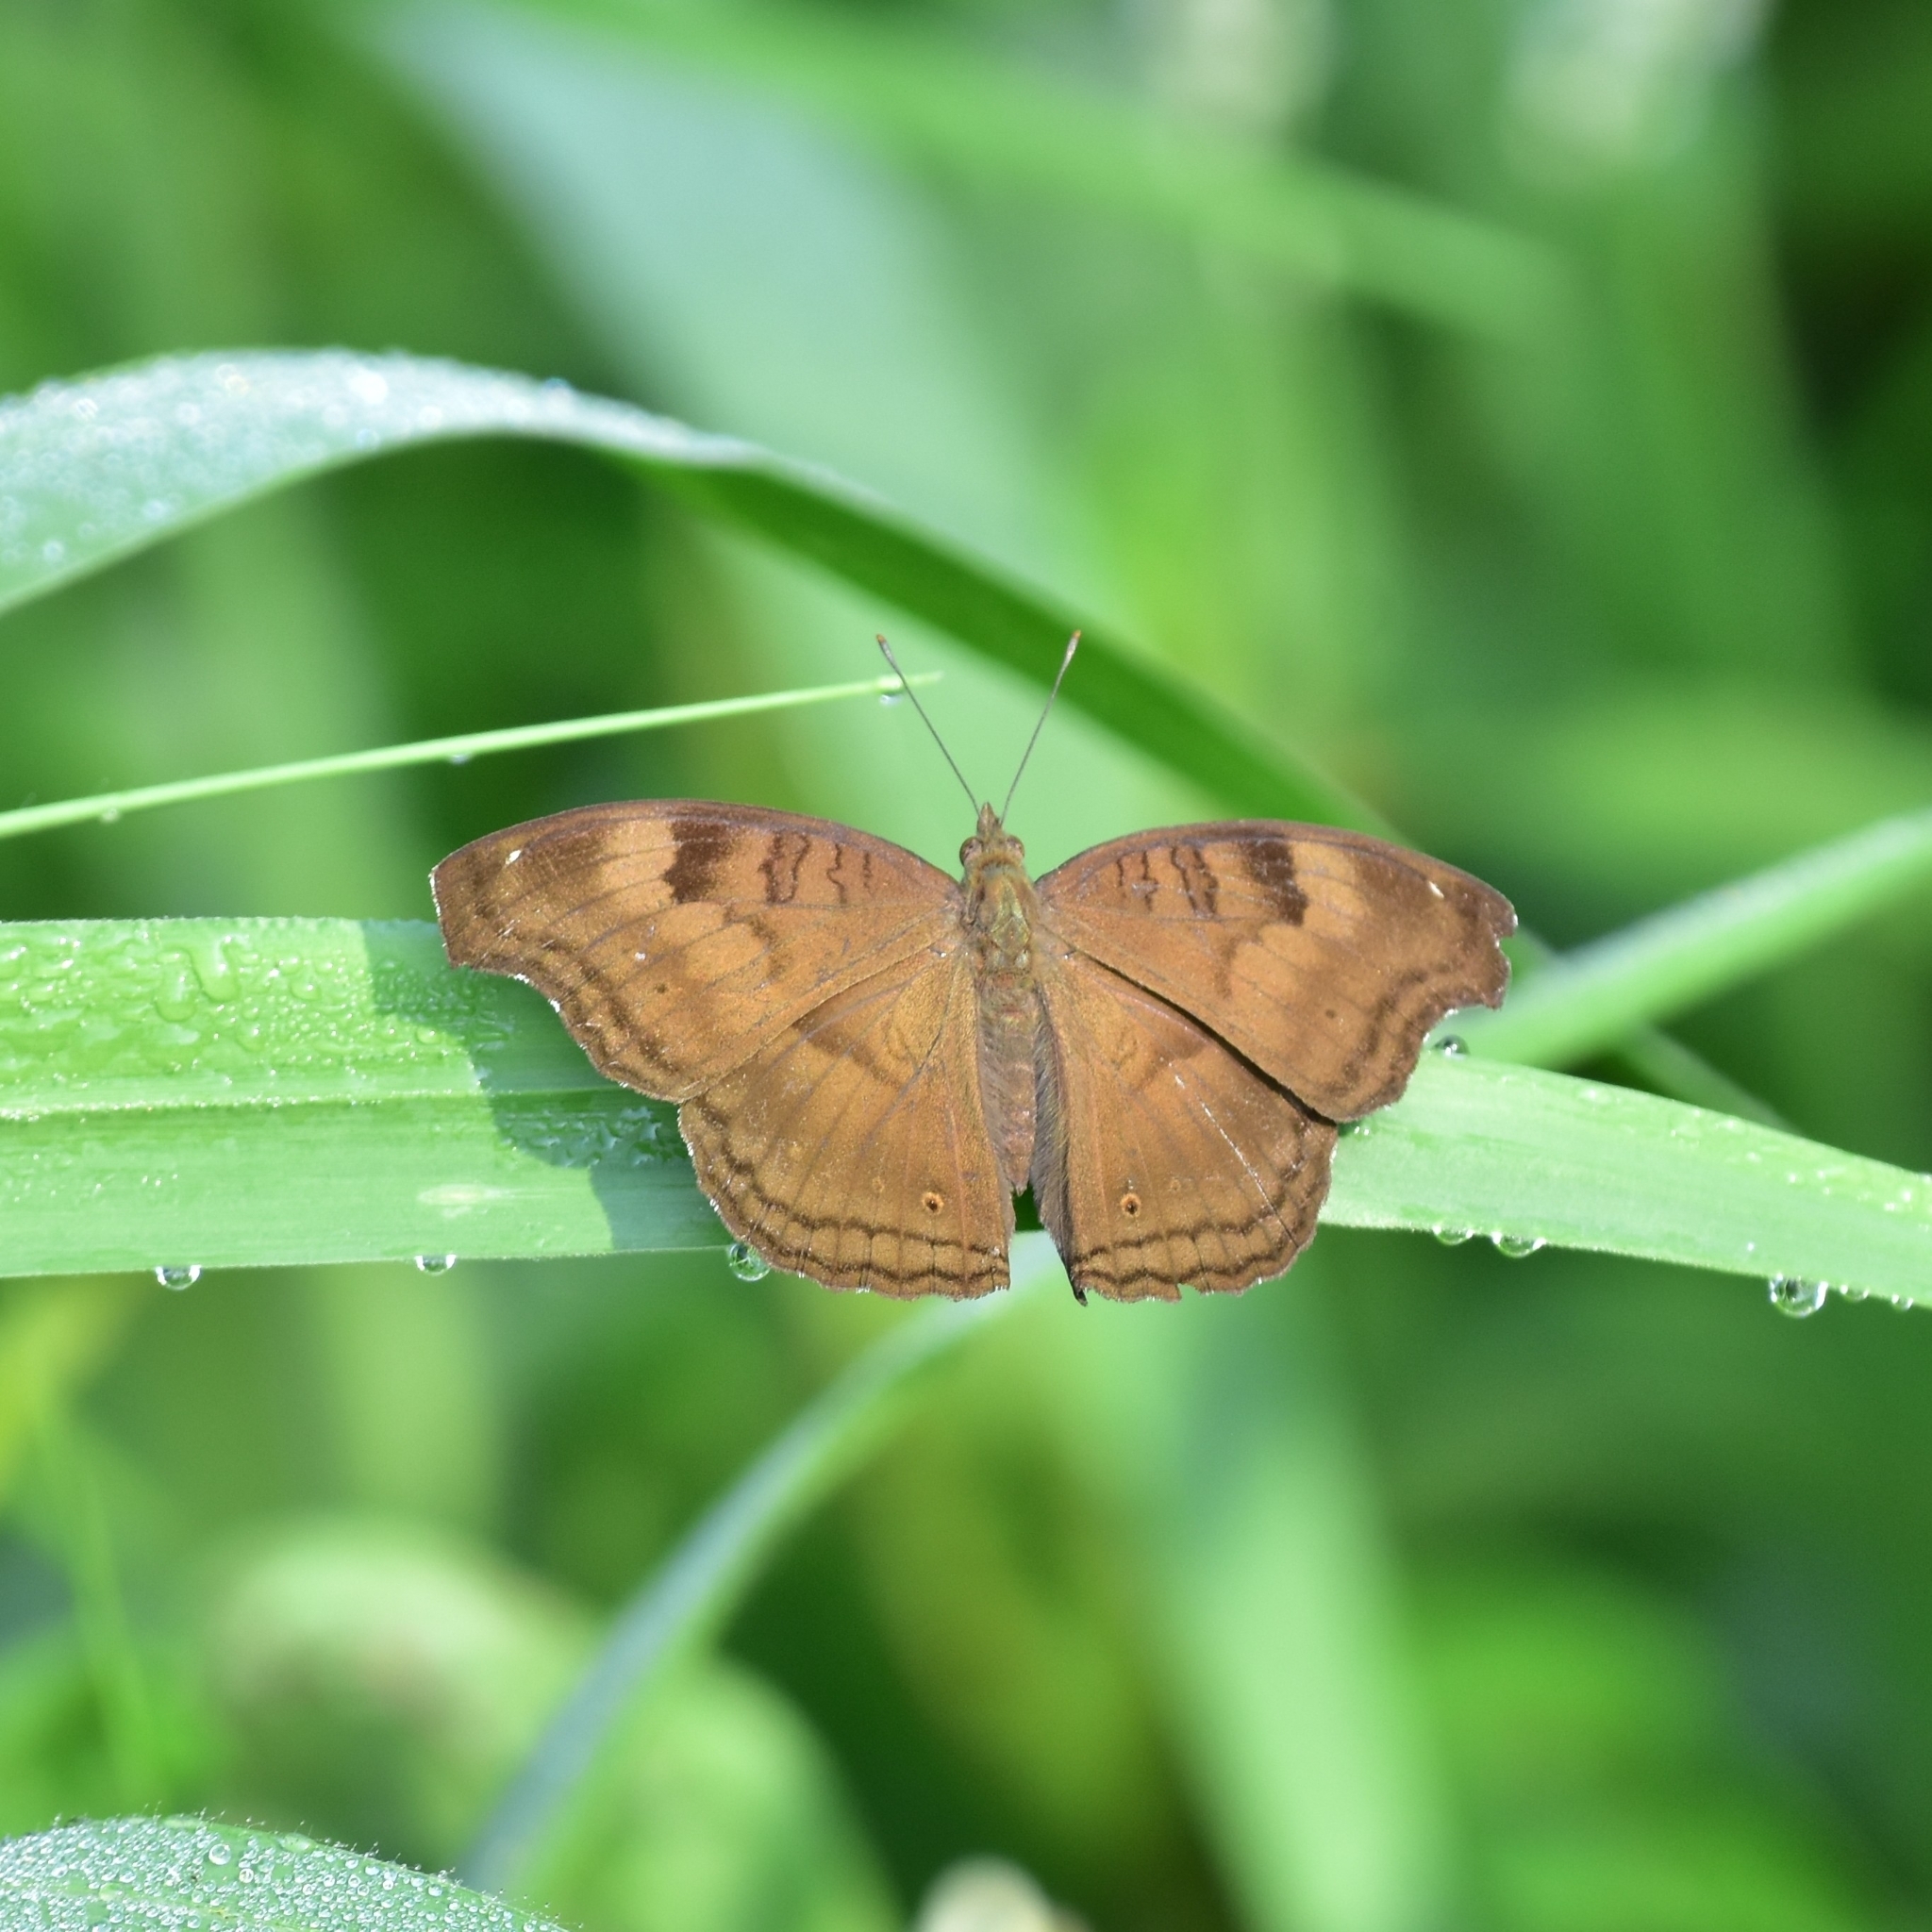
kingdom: Animalia
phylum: Arthropoda
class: Insecta
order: Lepidoptera
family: Nymphalidae
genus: Junonia
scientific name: Junonia iphita
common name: Chocolate pansy
